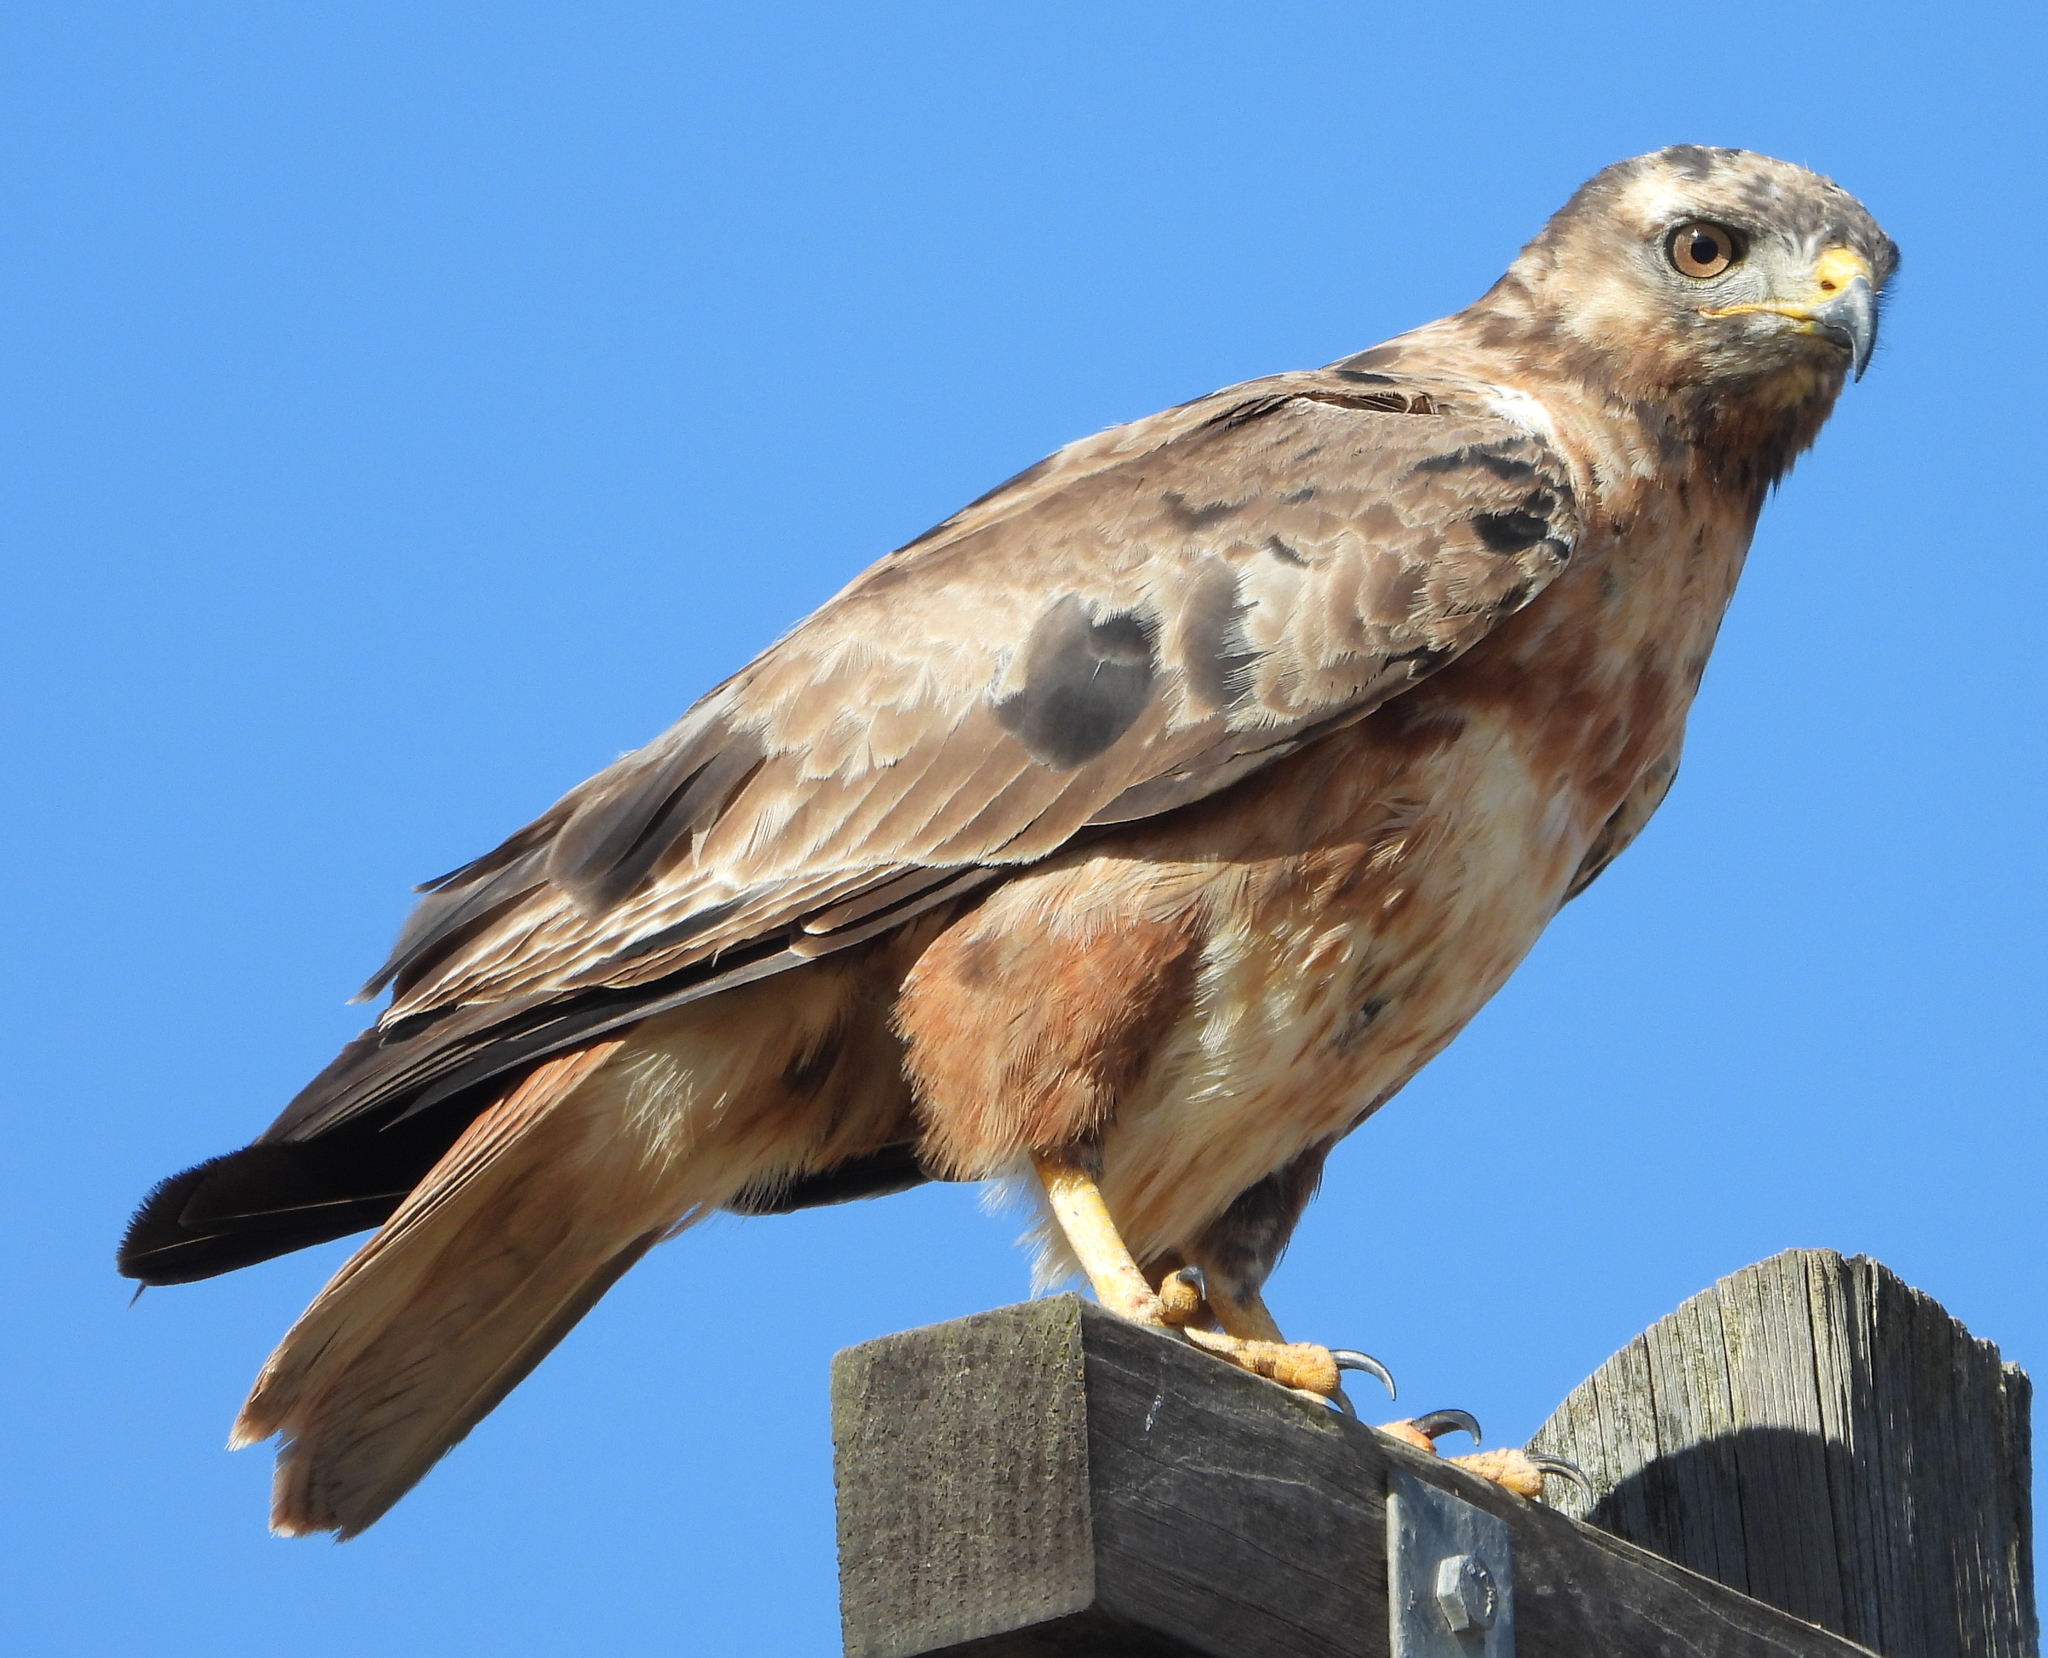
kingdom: Animalia
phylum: Chordata
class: Aves
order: Accipitriformes
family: Accipitridae
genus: Buteo
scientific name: Buteo rufofuscus
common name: Jackal buzzard
